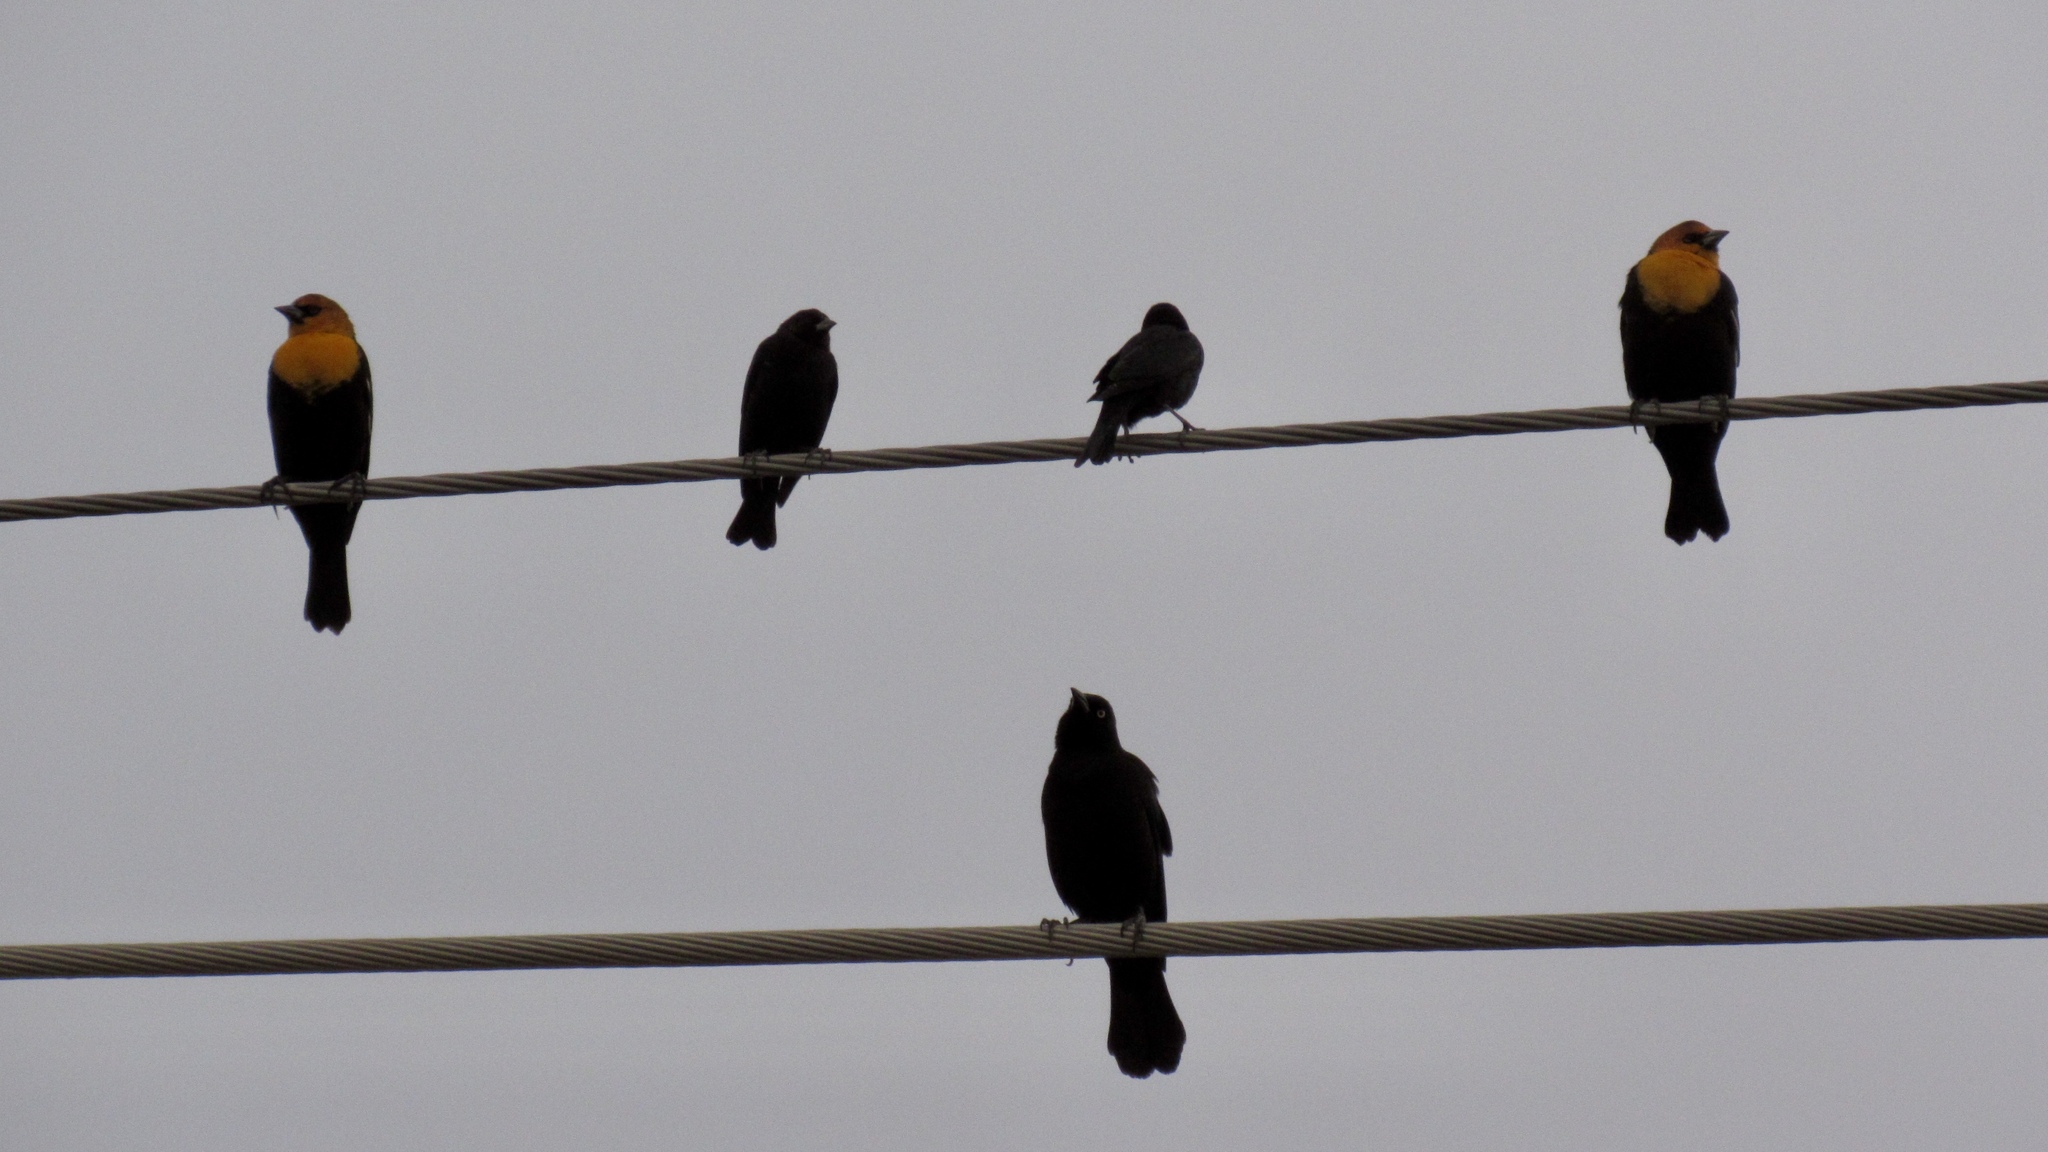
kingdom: Animalia
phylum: Chordata
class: Aves
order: Passeriformes
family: Icteridae
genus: Quiscalus
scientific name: Quiscalus mexicanus
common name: Great-tailed grackle
